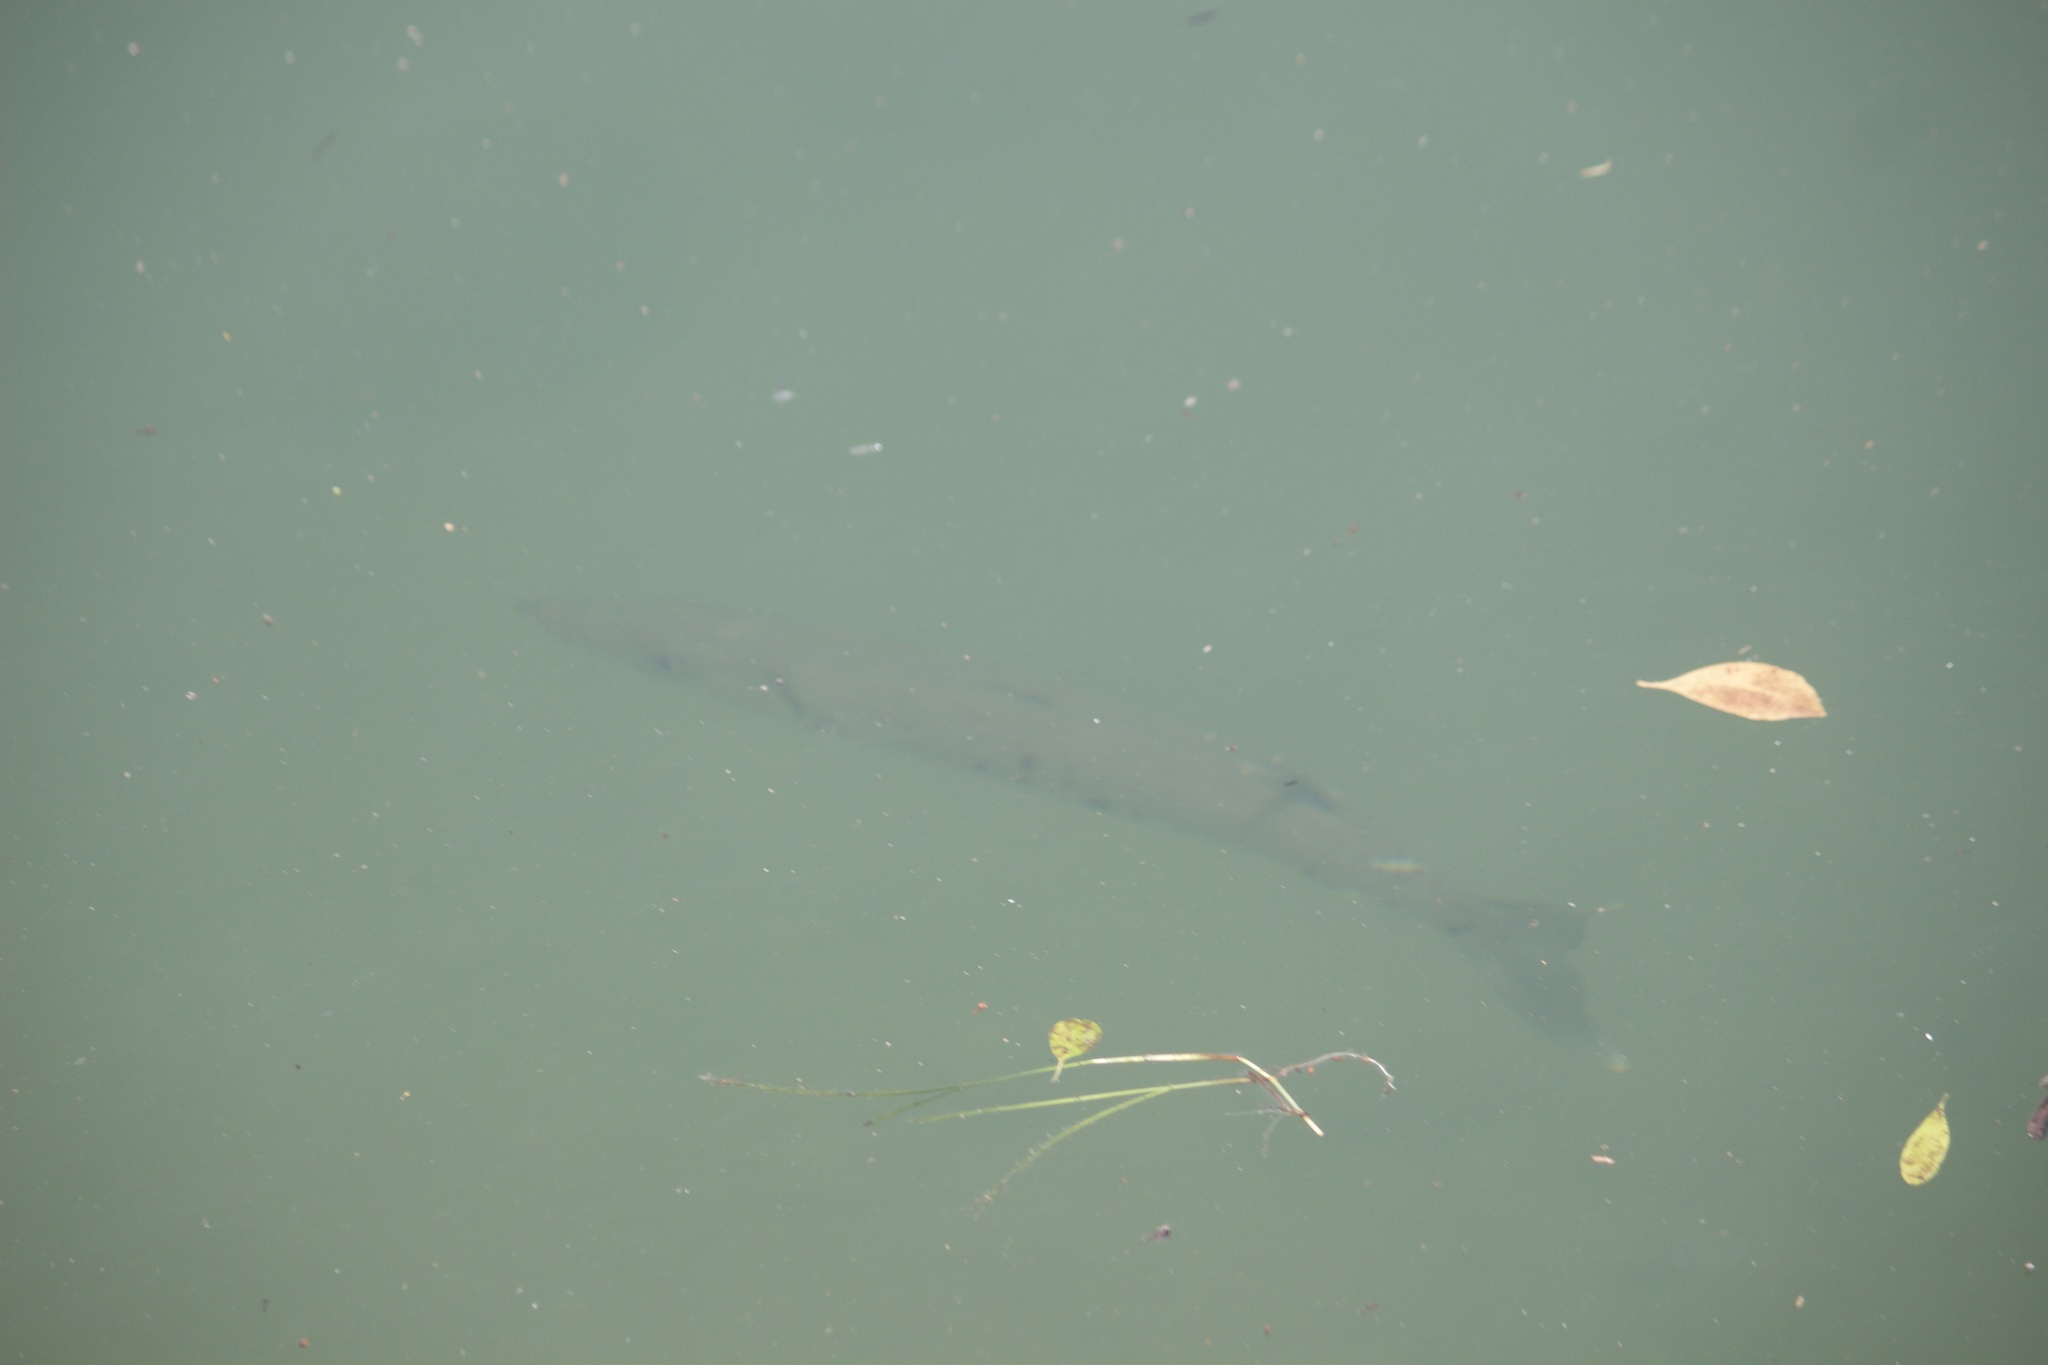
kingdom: Animalia
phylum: Chordata
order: Perciformes
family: Sphyraenidae
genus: Sphyraena
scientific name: Sphyraena barracuda
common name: Great barracuda
